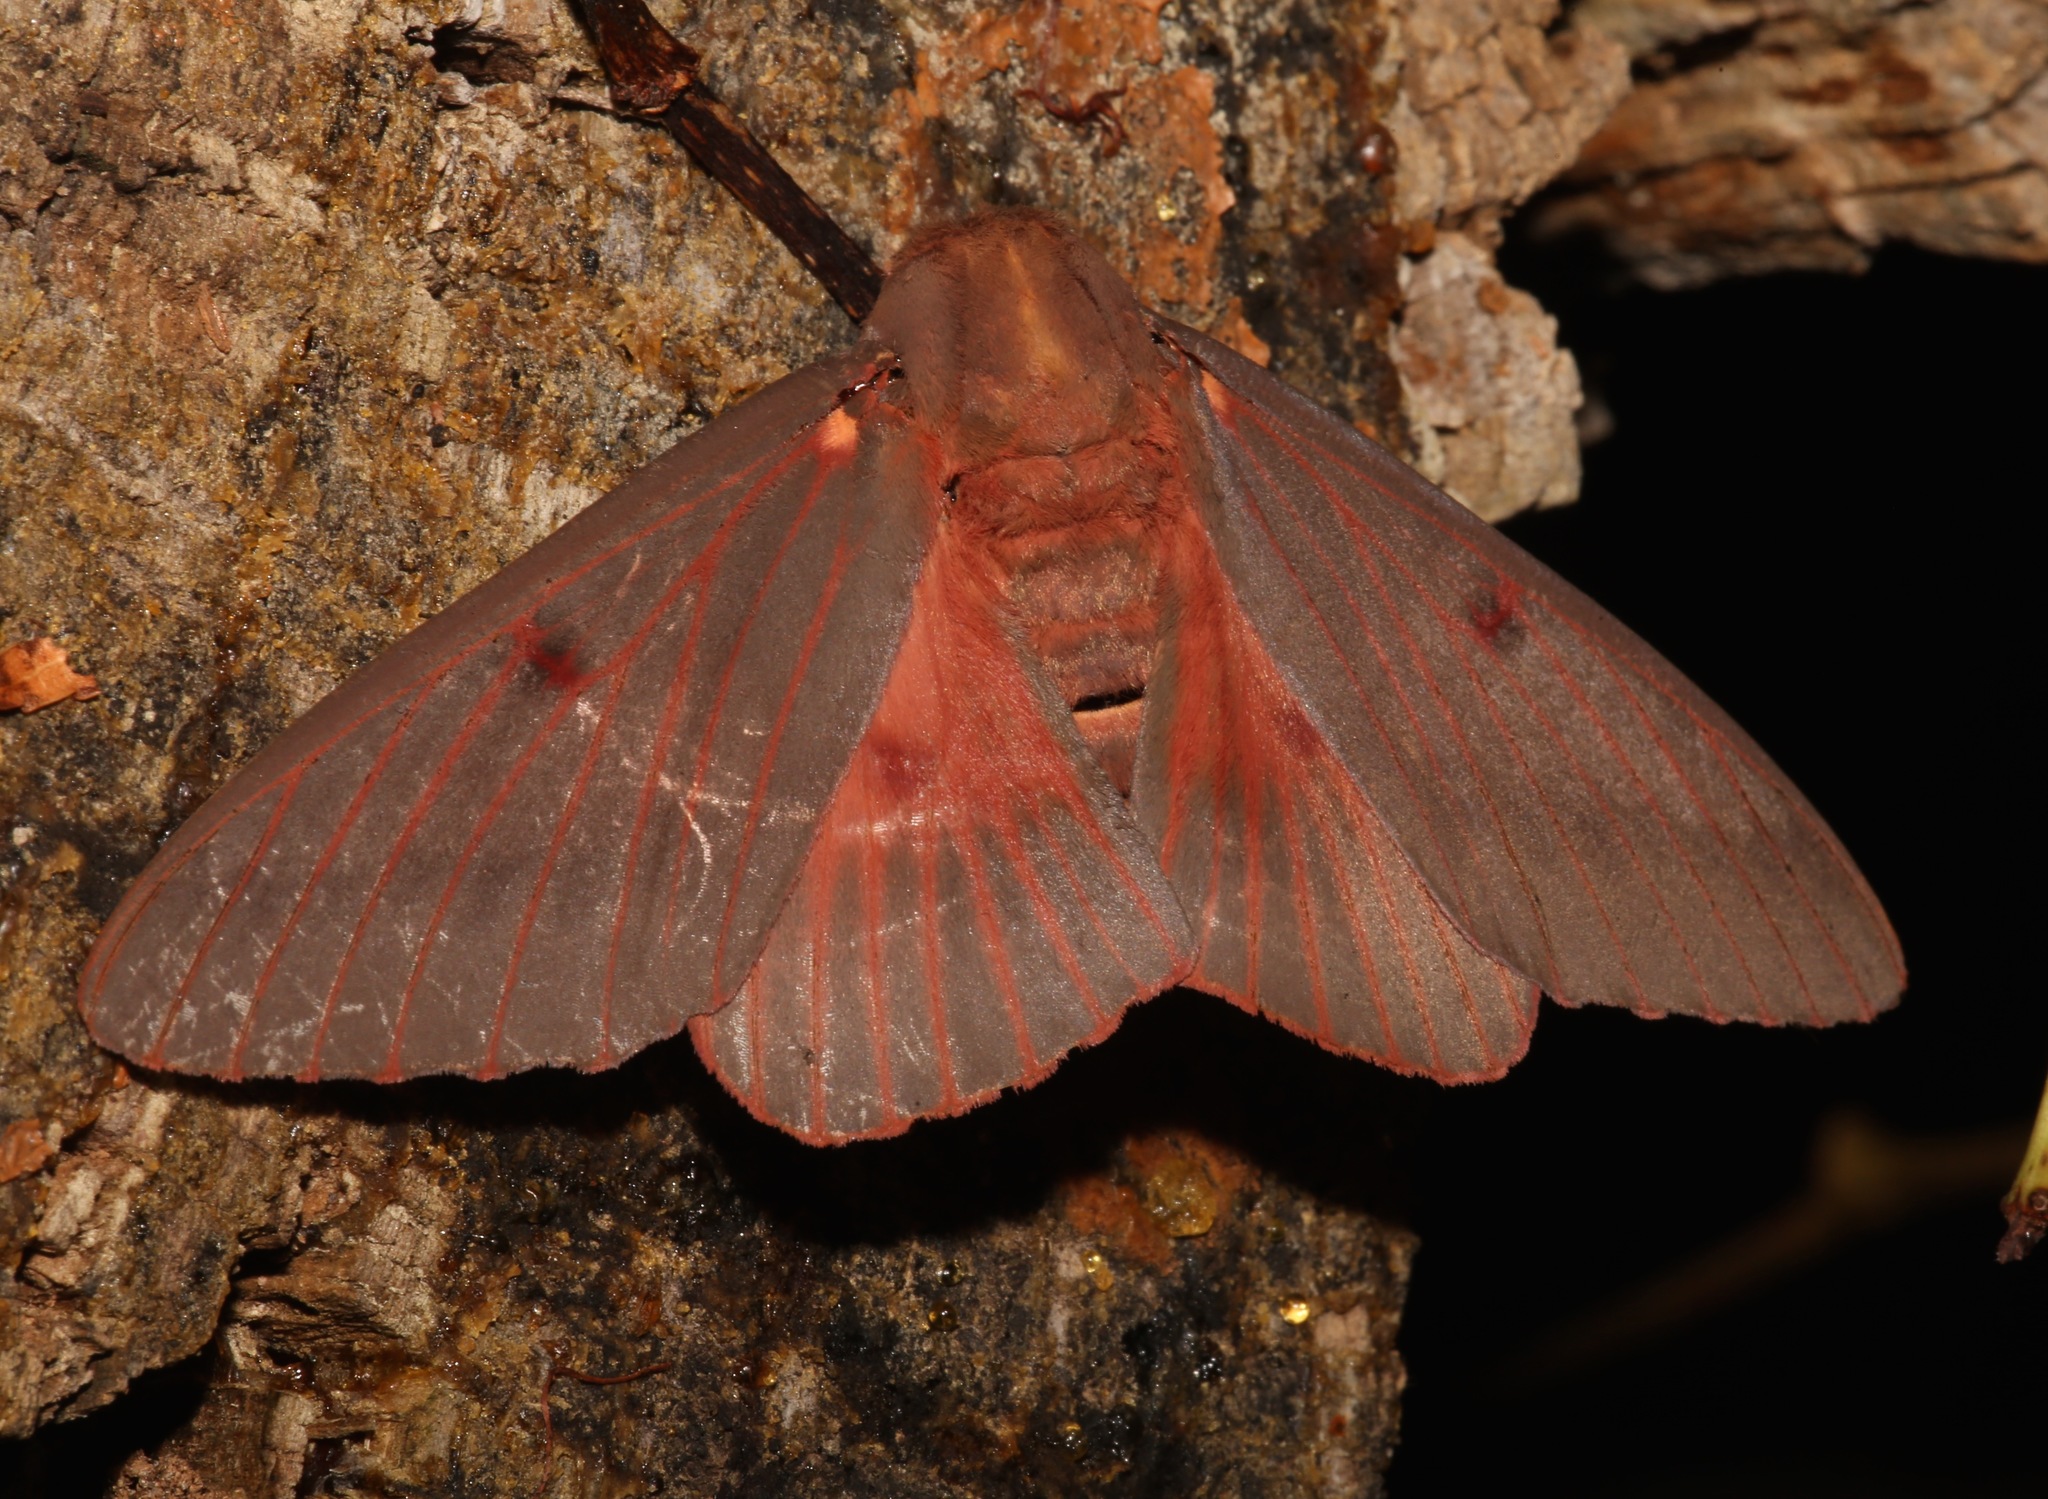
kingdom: Animalia
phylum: Arthropoda
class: Insecta
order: Lepidoptera
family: Saturniidae
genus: Citheronia
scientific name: Citheronia sepulcralis
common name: Pine-devil moth
